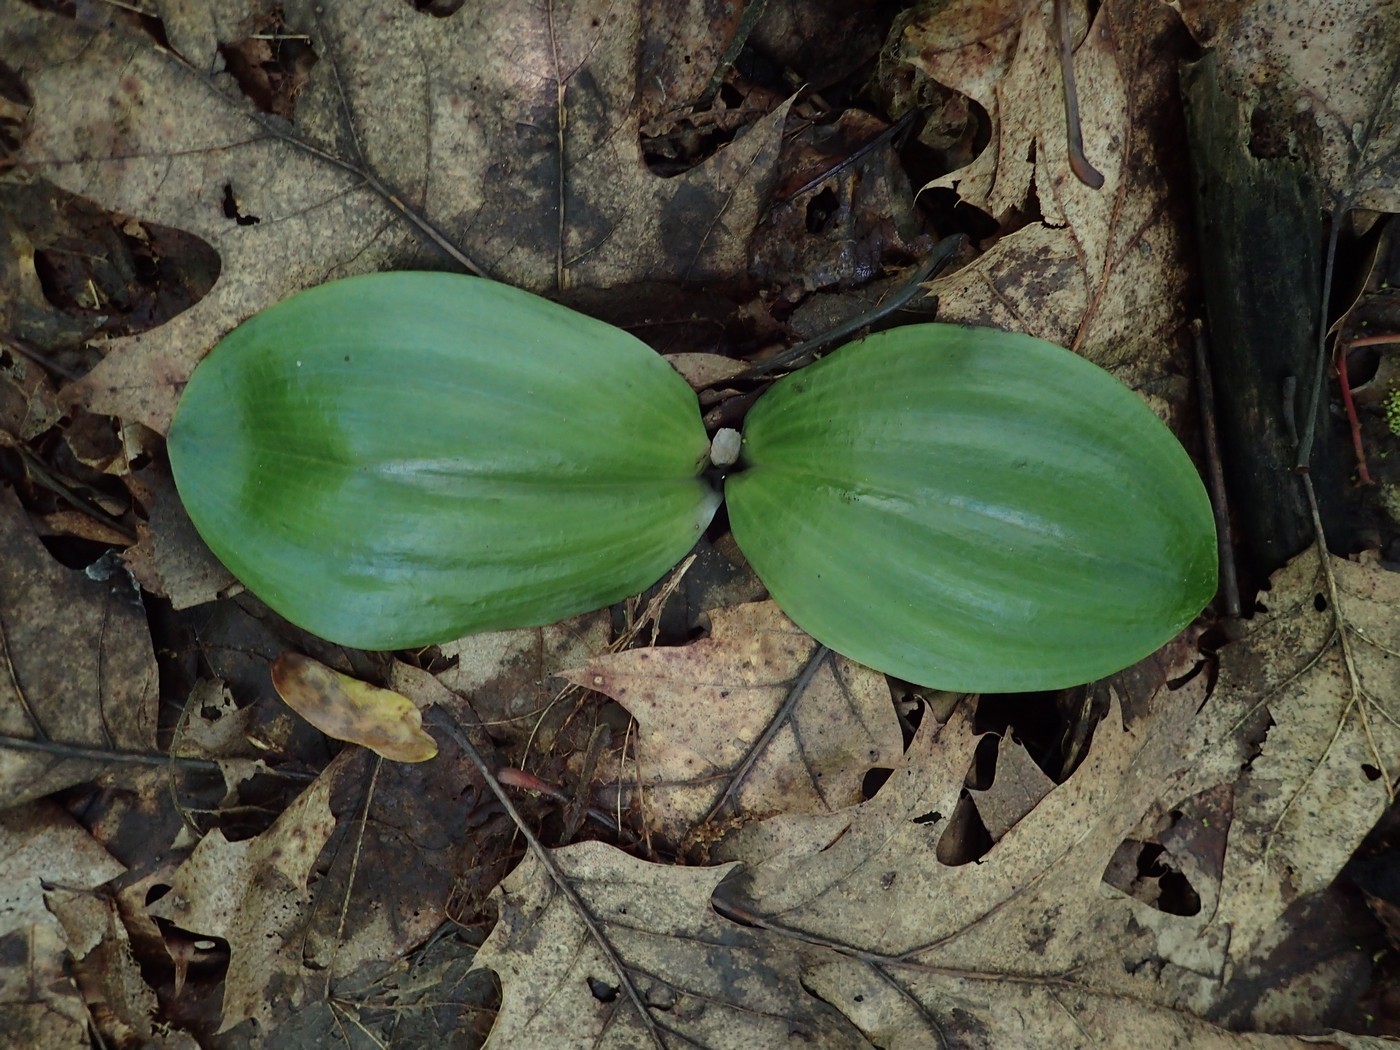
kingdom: Plantae
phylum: Tracheophyta
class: Liliopsida
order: Asparagales
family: Orchidaceae
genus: Platanthera
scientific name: Platanthera orbiculata
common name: Large round-leaved orchid
